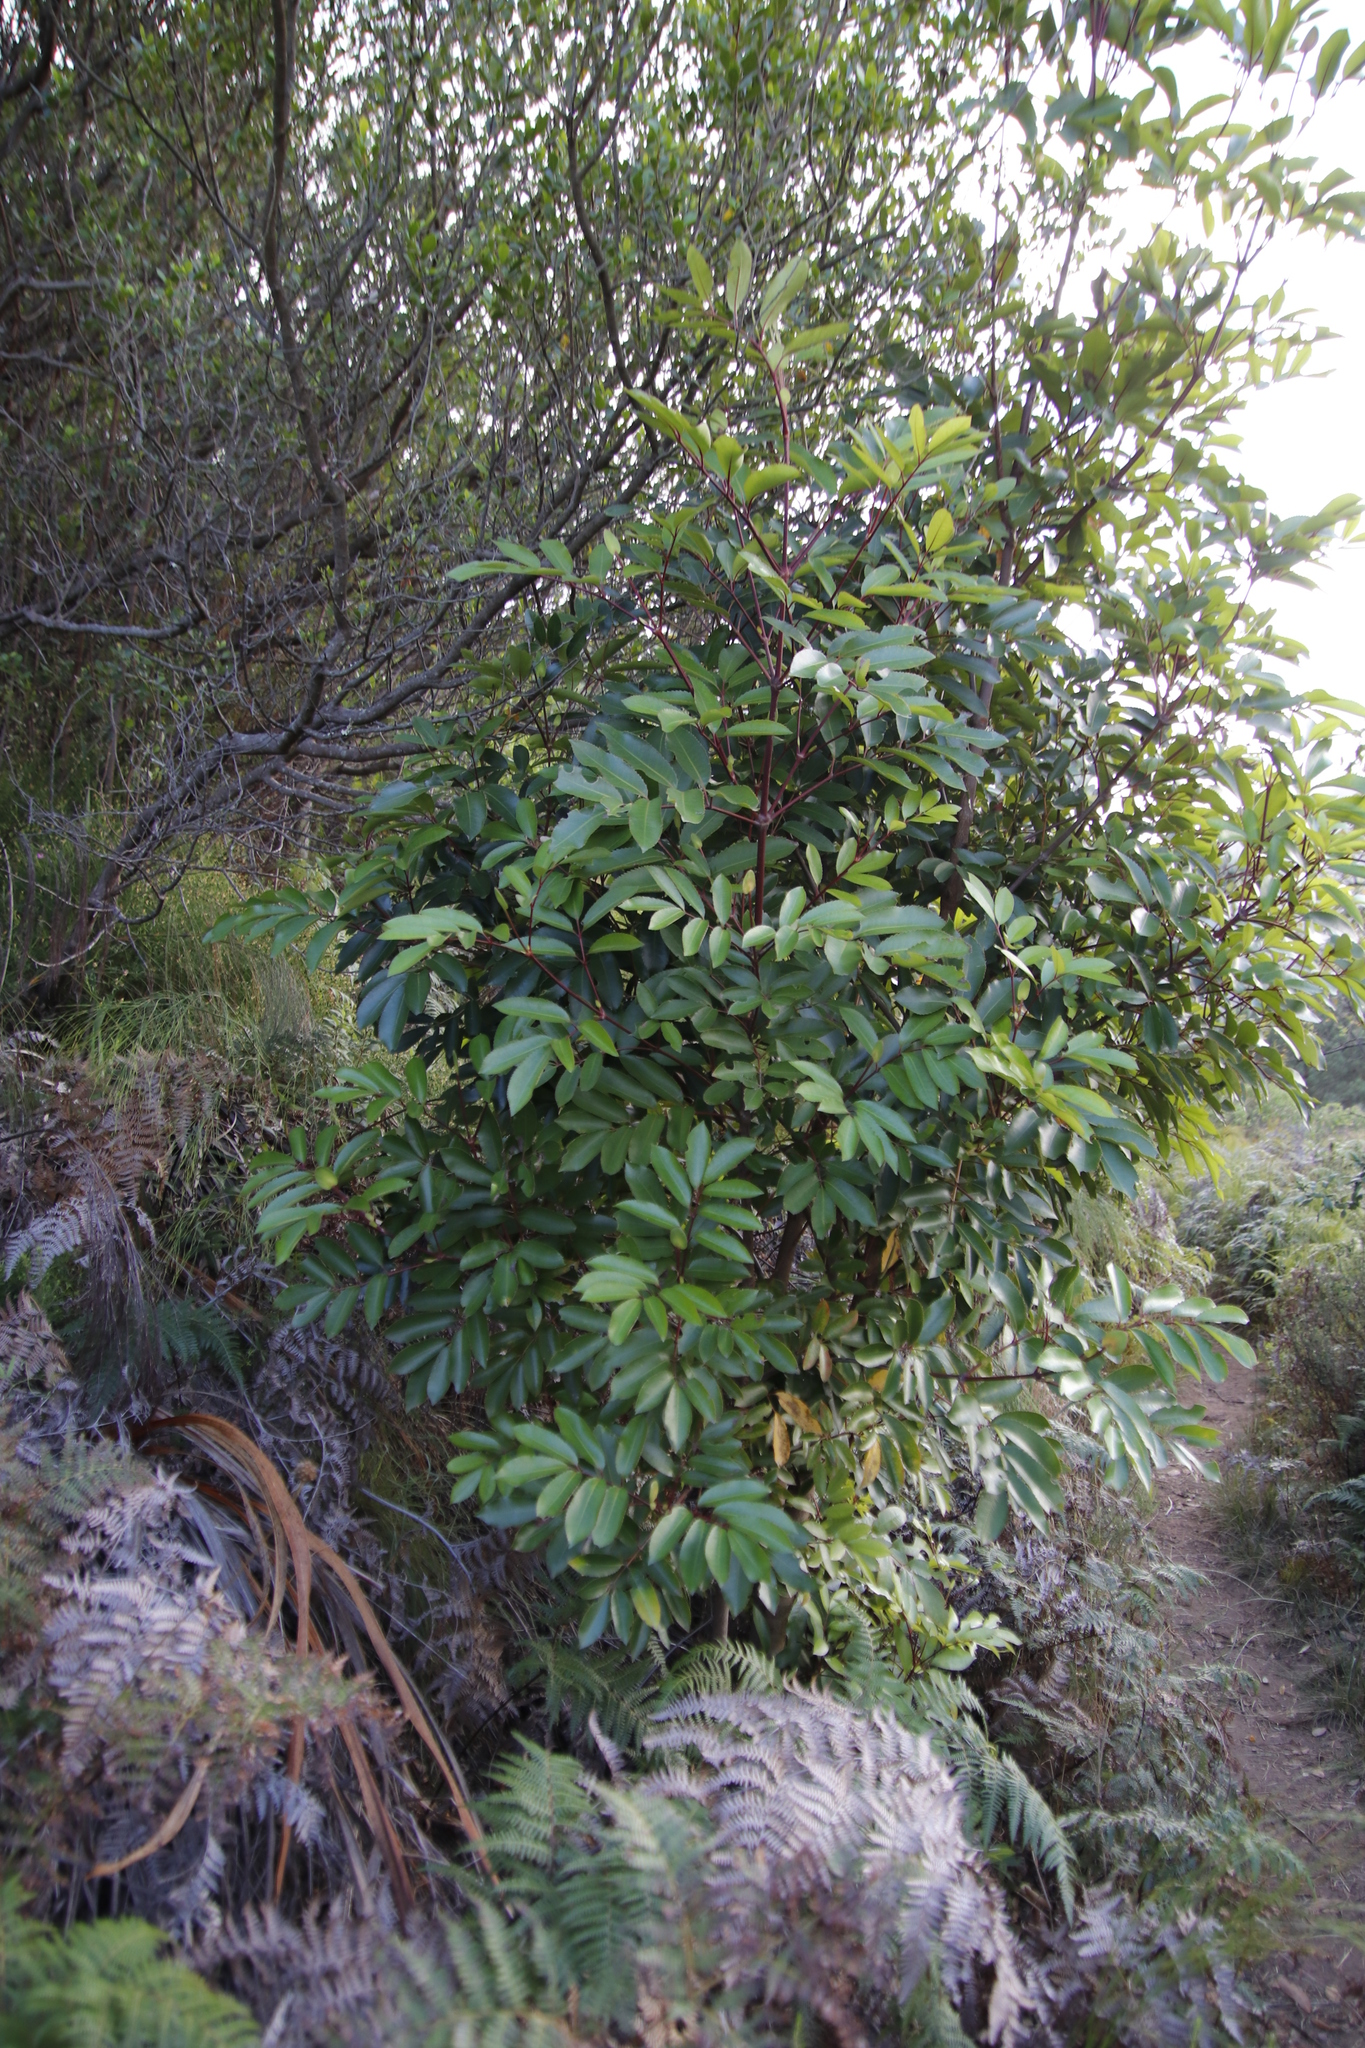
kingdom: Plantae
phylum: Tracheophyta
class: Magnoliopsida
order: Oxalidales
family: Cunoniaceae
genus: Cunonia
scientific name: Cunonia capensis
